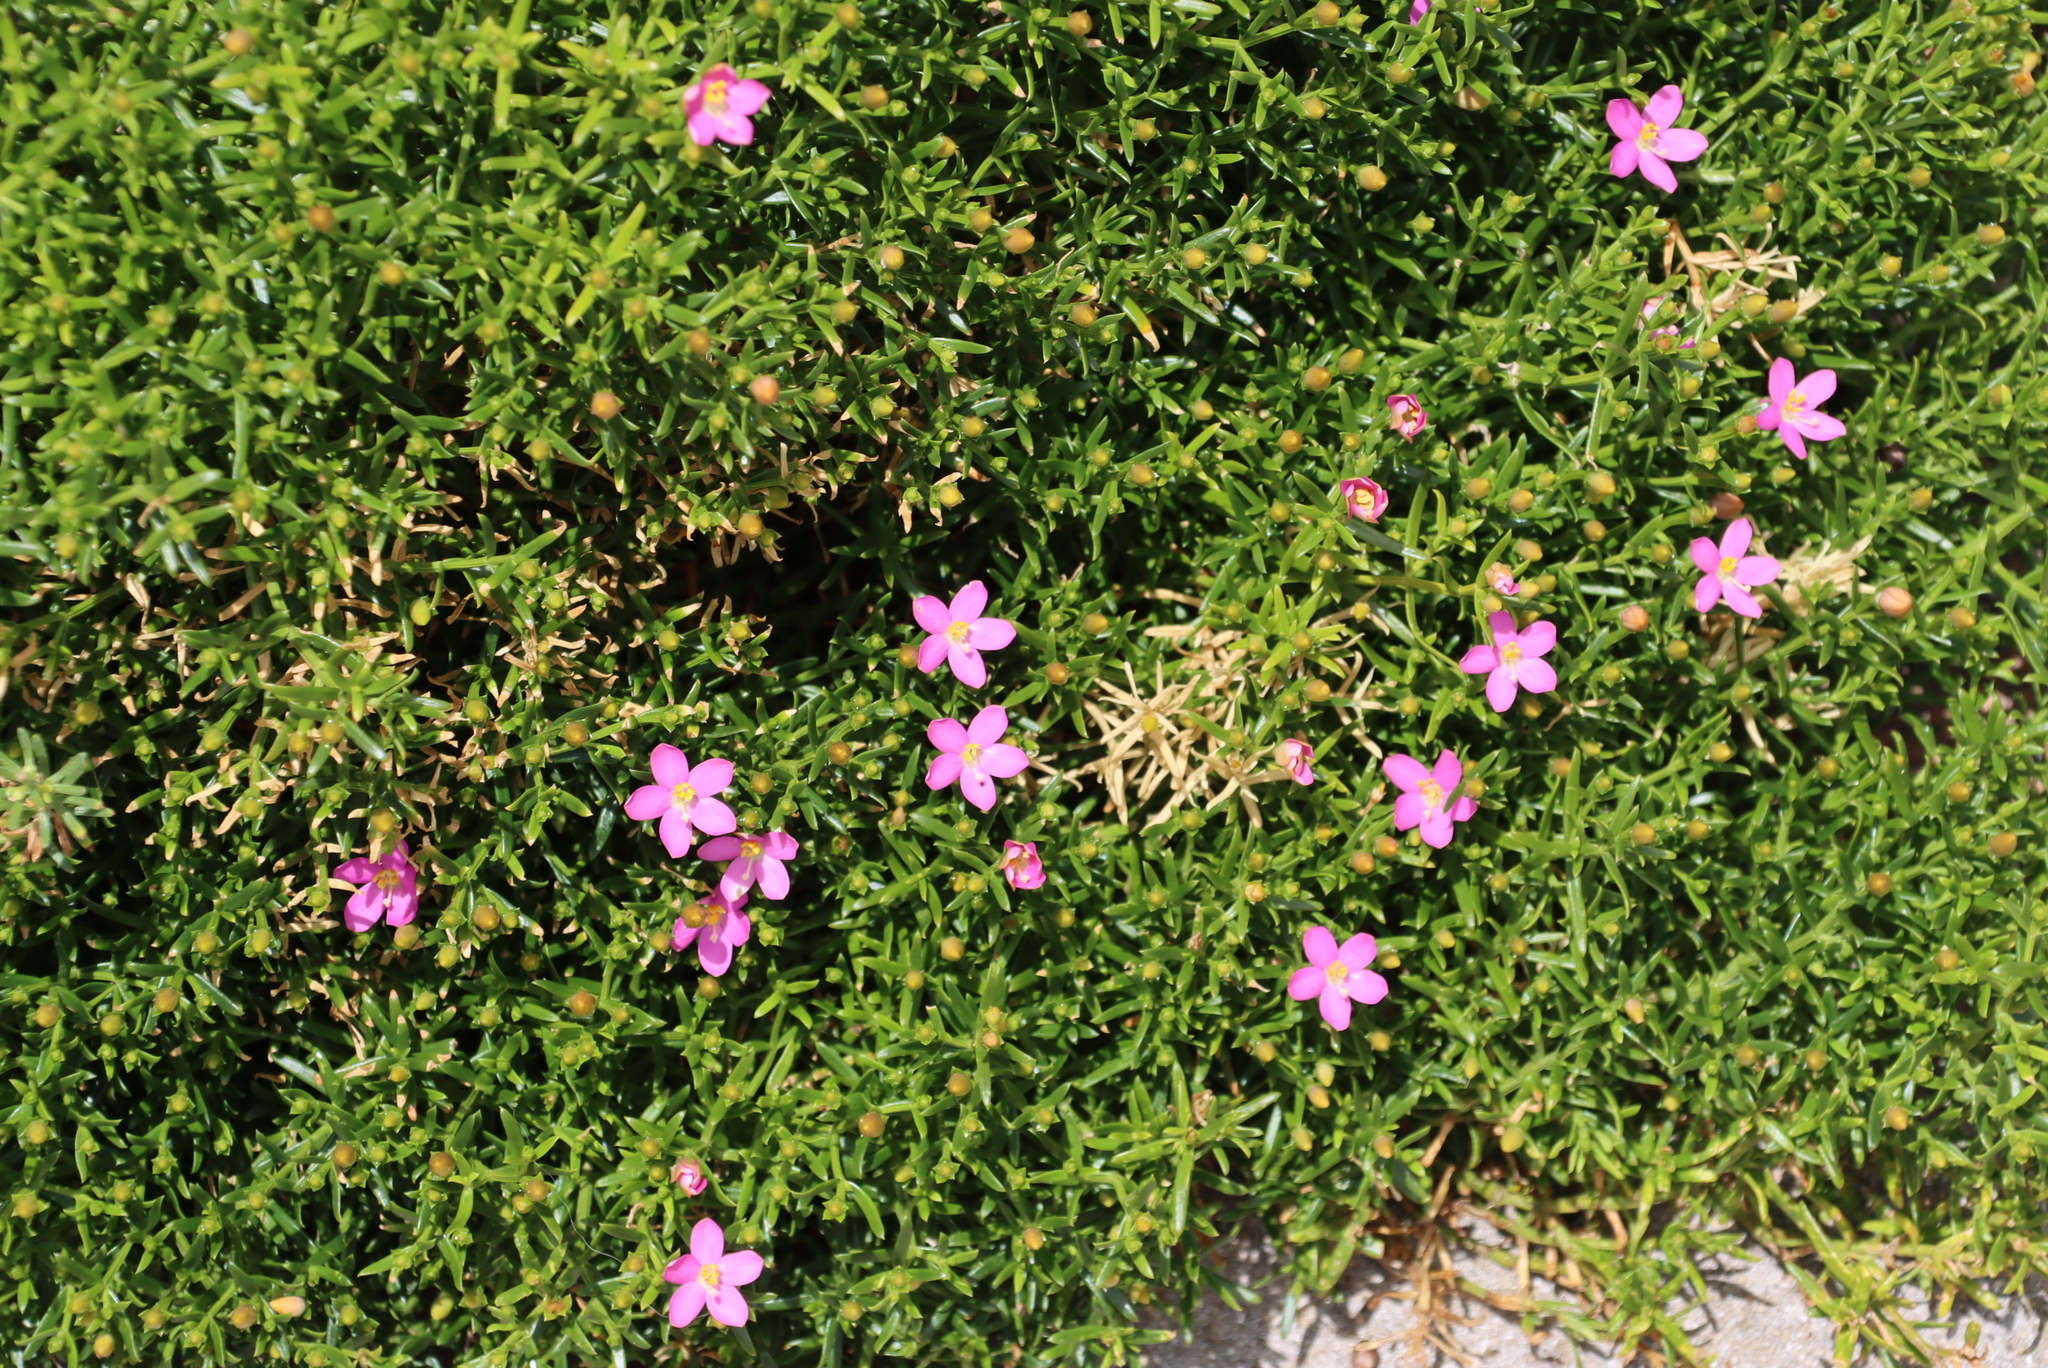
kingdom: Plantae
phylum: Tracheophyta
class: Magnoliopsida
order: Gentianales
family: Gentianaceae
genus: Chironia
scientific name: Chironia baccifera
